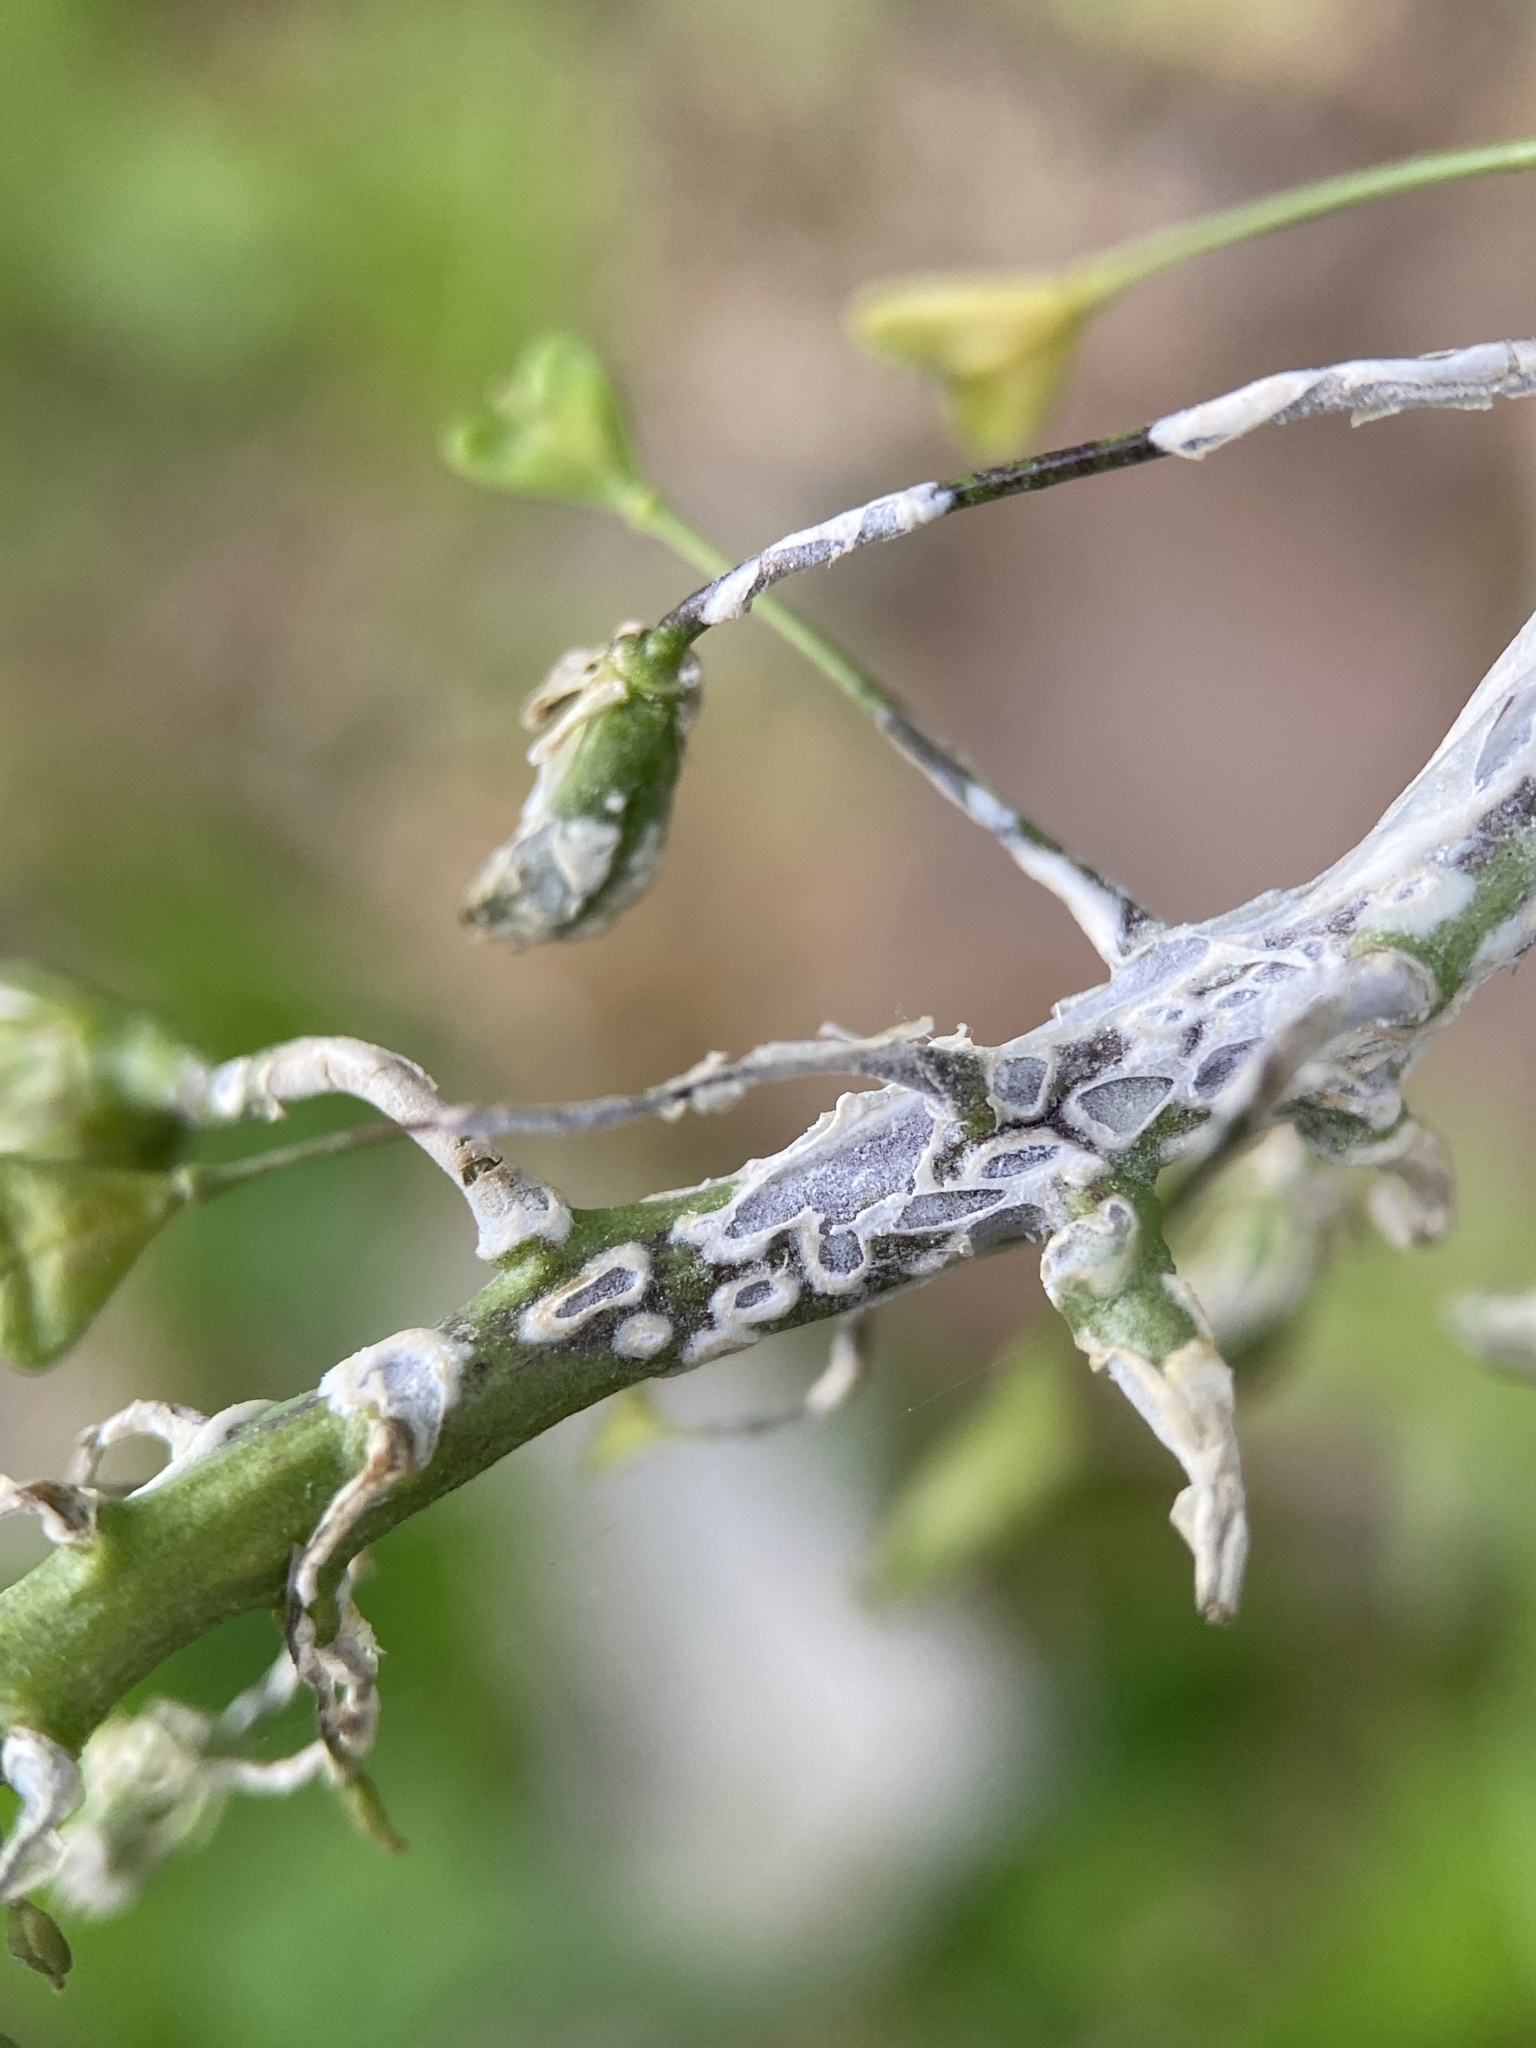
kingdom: Chromista
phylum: Oomycota
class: Peronosporea
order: Albuginales
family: Albuginaceae
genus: Albugo
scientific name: Albugo candida
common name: Crucifer white blister
